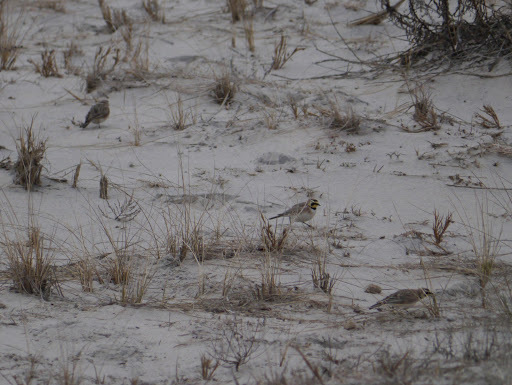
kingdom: Animalia
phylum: Chordata
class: Aves
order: Passeriformes
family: Alaudidae
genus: Eremophila
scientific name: Eremophila alpestris
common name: Horned lark
